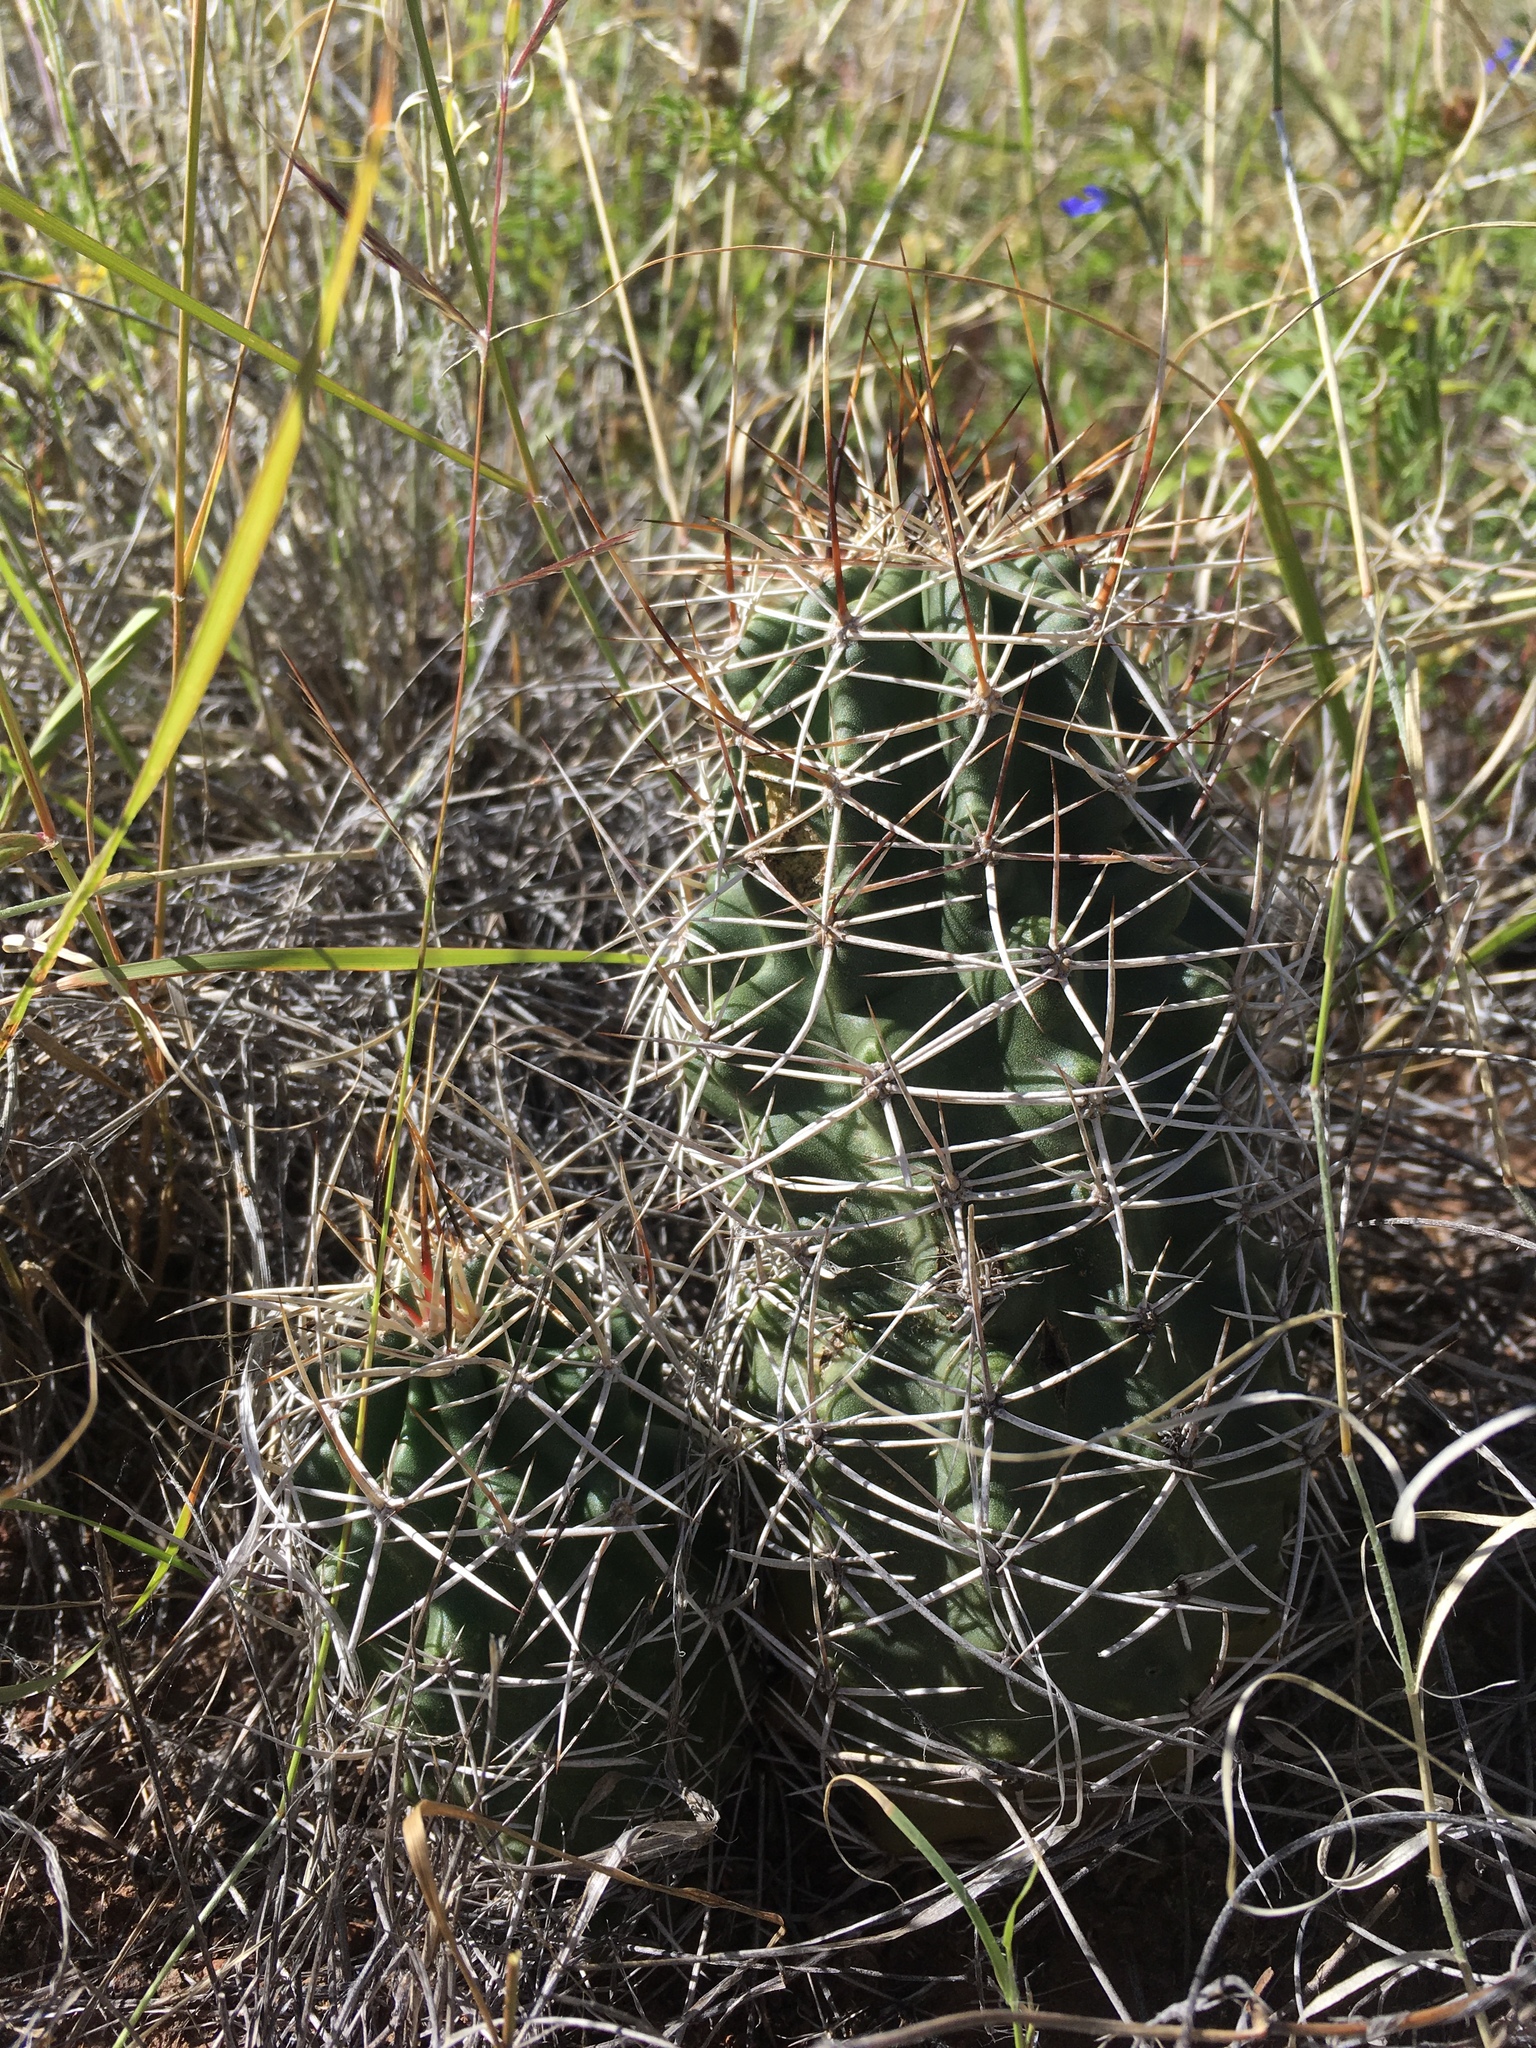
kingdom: Plantae
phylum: Tracheophyta
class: Magnoliopsida
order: Caryophyllales
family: Cactaceae
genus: Echinocereus
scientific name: Echinocereus fendleri
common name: Fendler's hedgehog cactus
